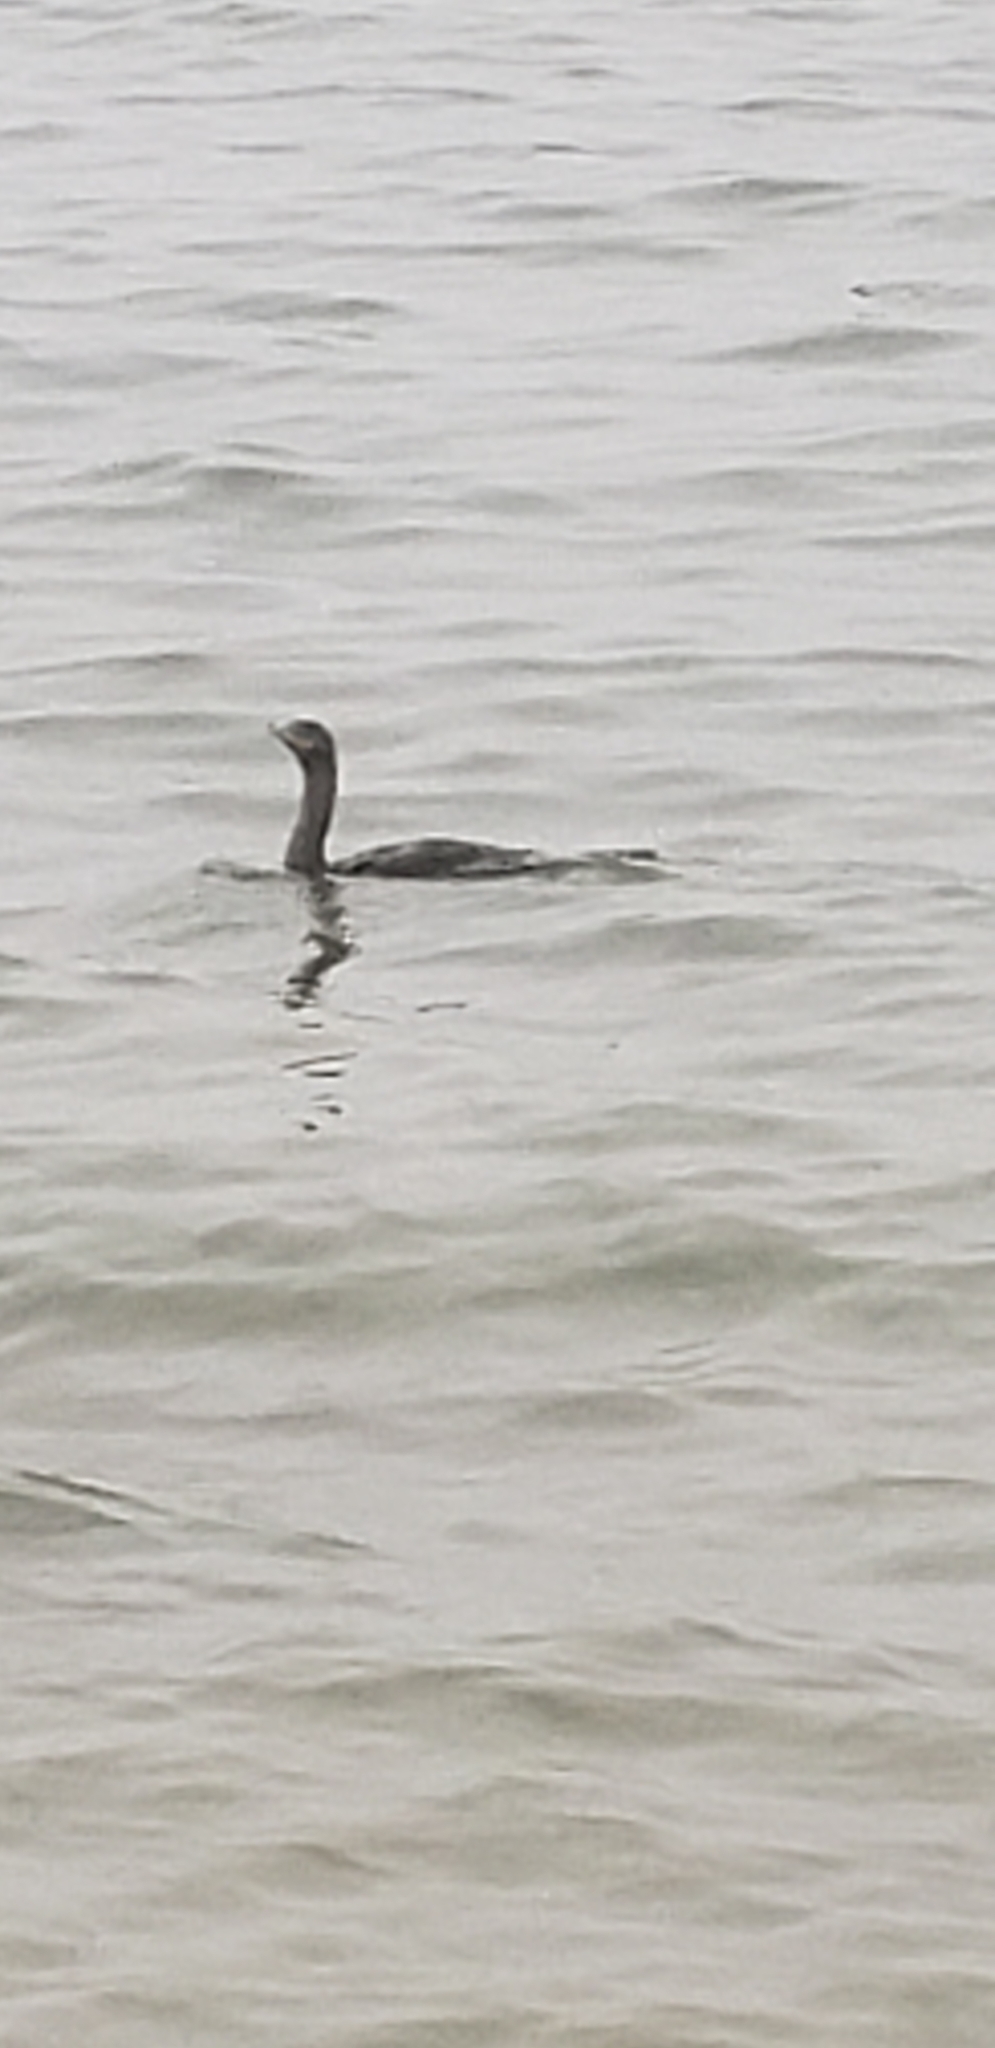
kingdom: Animalia
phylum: Chordata
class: Aves
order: Suliformes
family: Phalacrocoracidae
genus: Phalacrocorax
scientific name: Phalacrocorax auritus
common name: Double-crested cormorant
